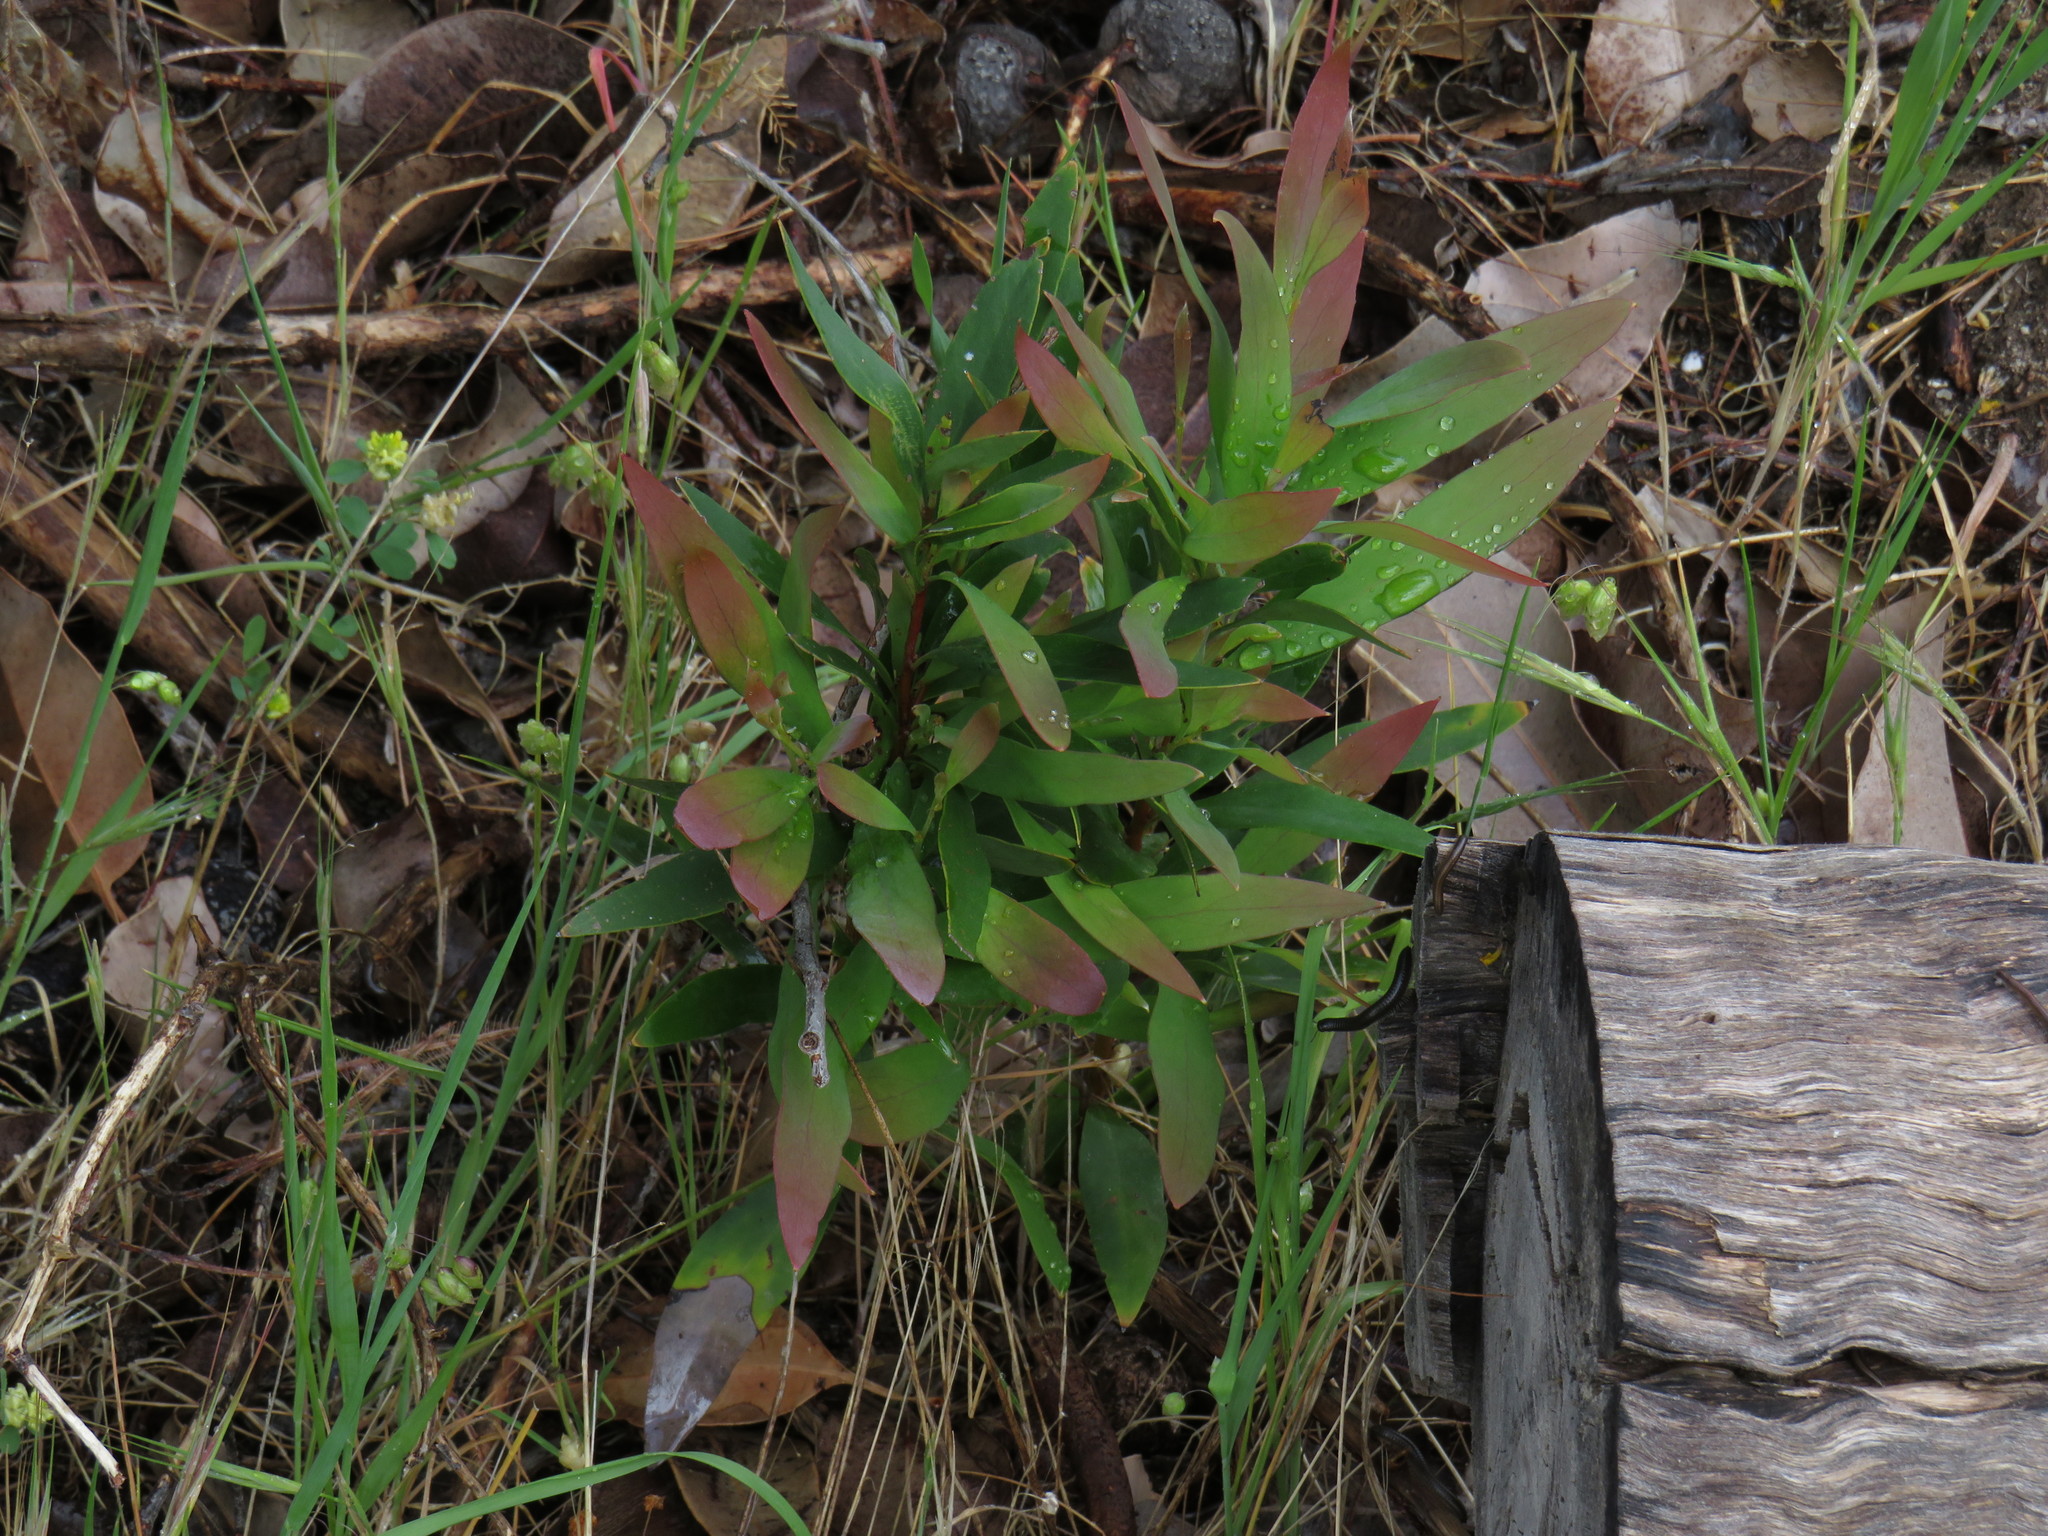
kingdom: Plantae
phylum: Tracheophyta
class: Magnoliopsida
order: Proteales
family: Proteaceae
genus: Hakea
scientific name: Hakea salicifolia
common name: Willow hakea
